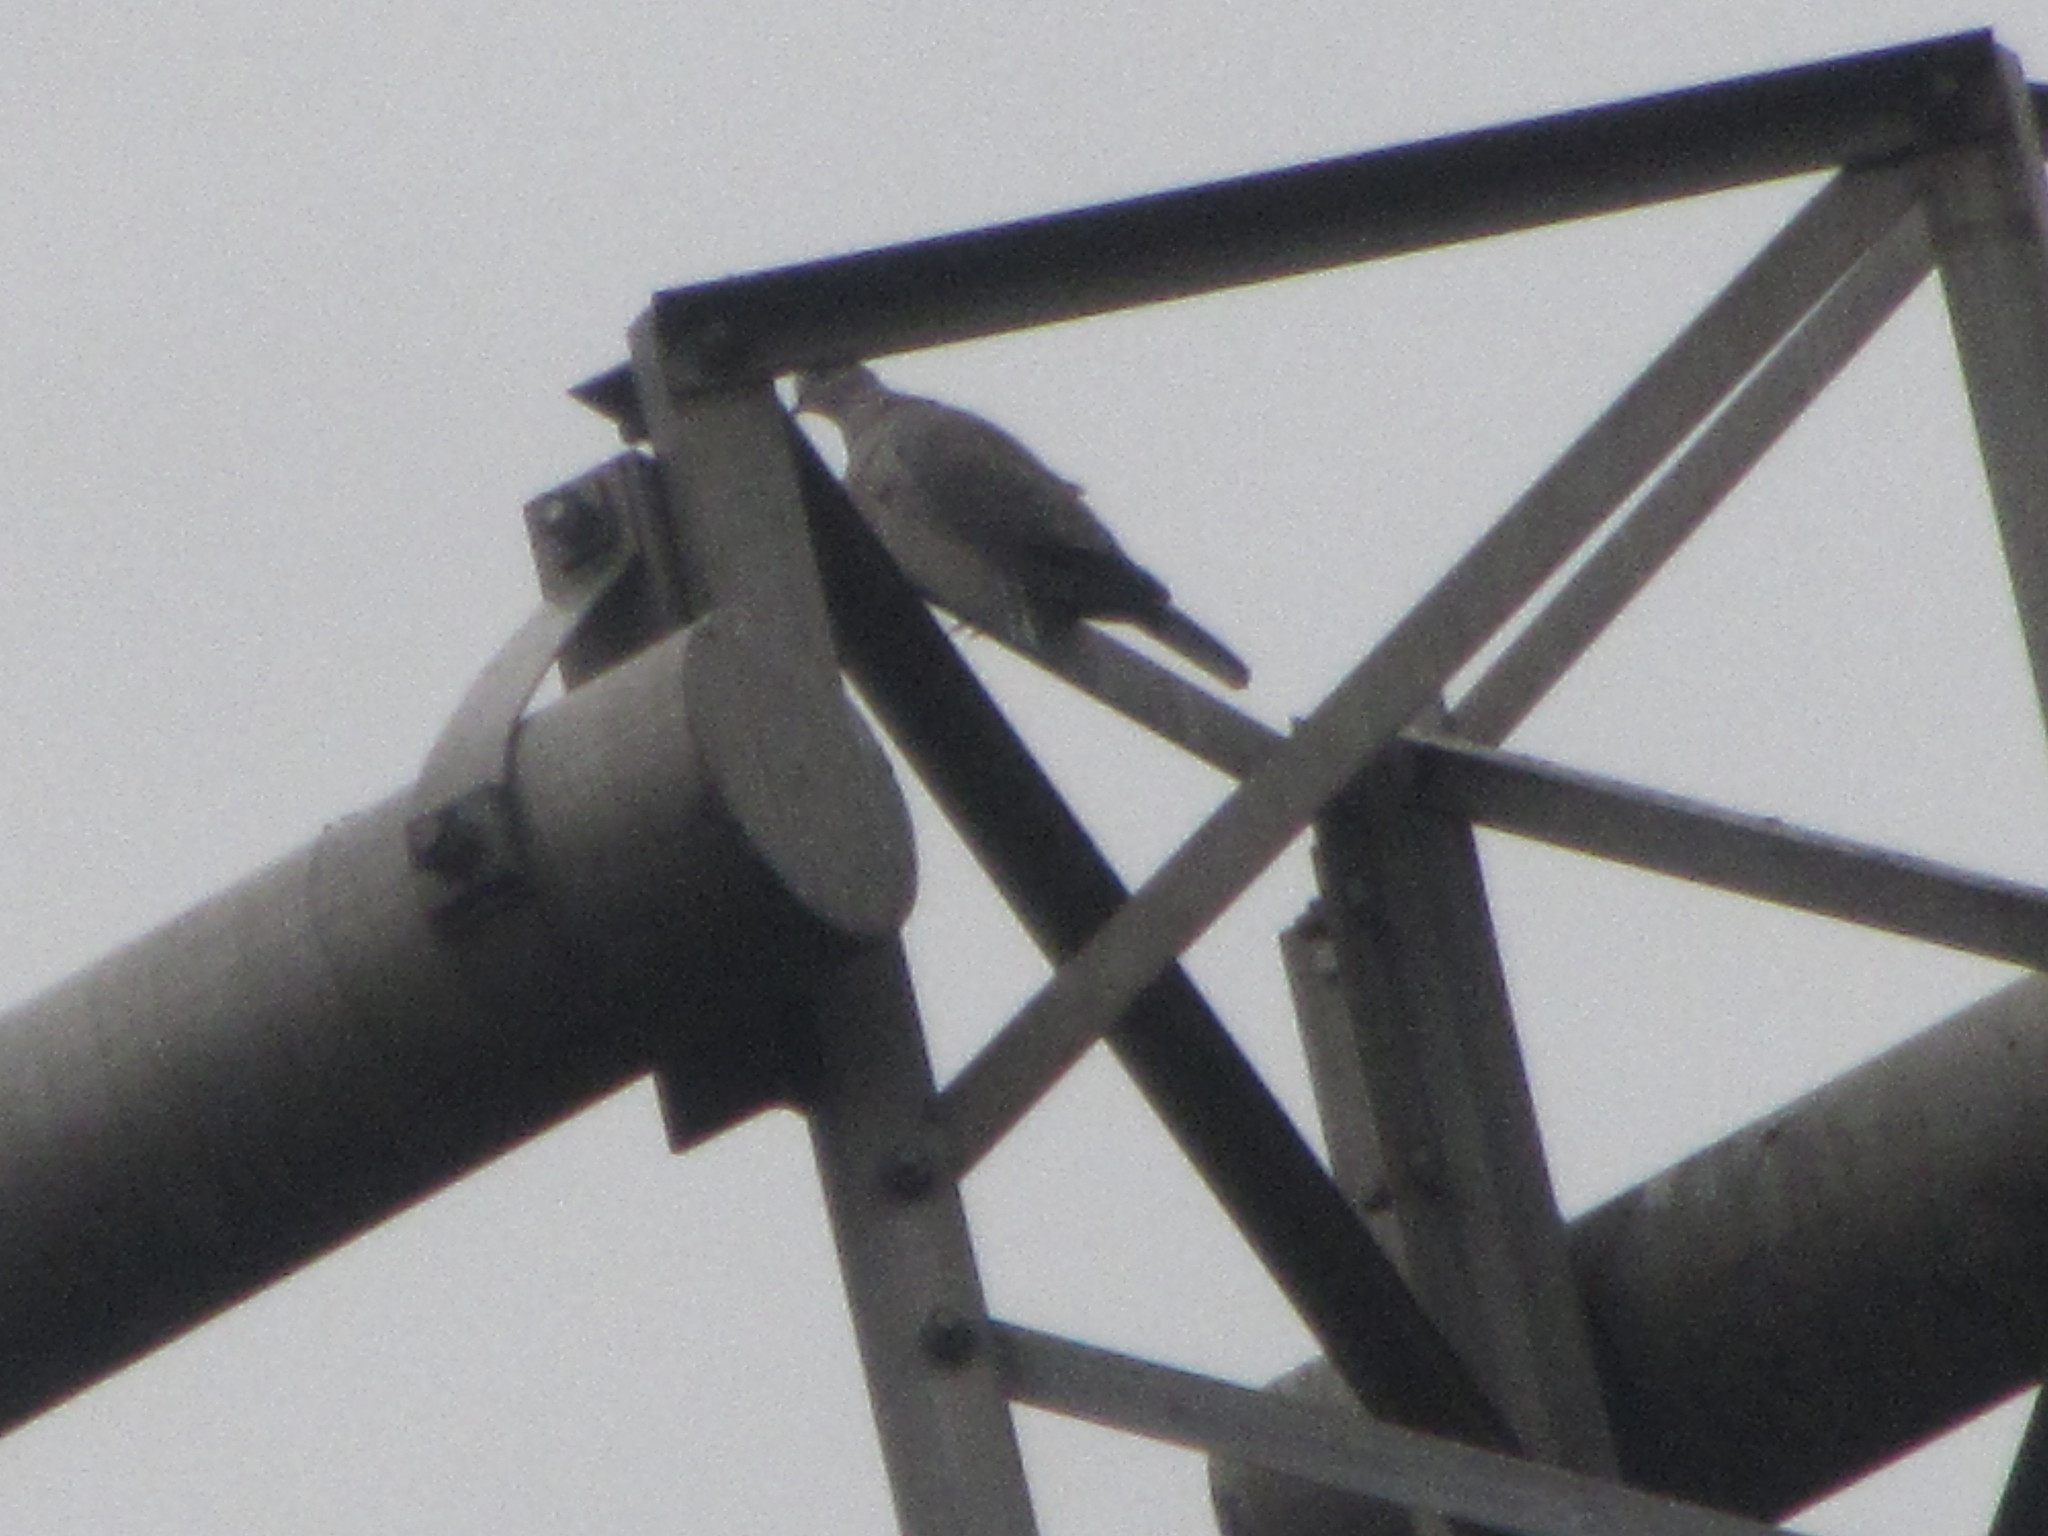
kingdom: Animalia
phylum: Chordata
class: Aves
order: Columbiformes
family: Columbidae
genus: Streptopelia
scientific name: Streptopelia decaocto
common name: Eurasian collared dove
